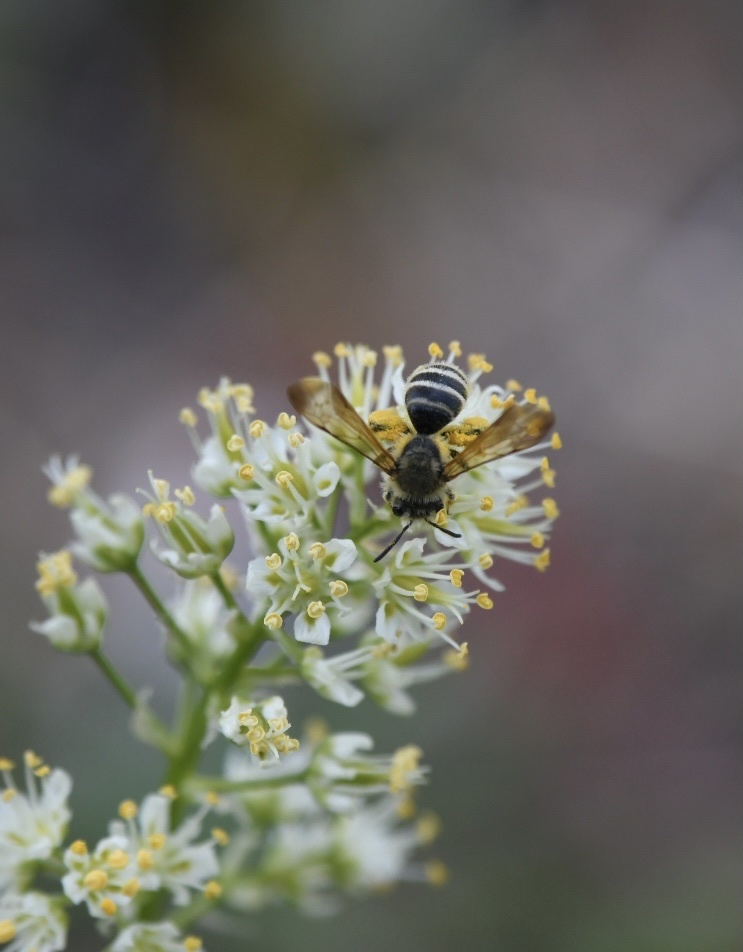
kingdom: Animalia
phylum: Arthropoda
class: Insecta
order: Hymenoptera
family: Andrenidae
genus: Andrena
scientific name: Andrena astragali
